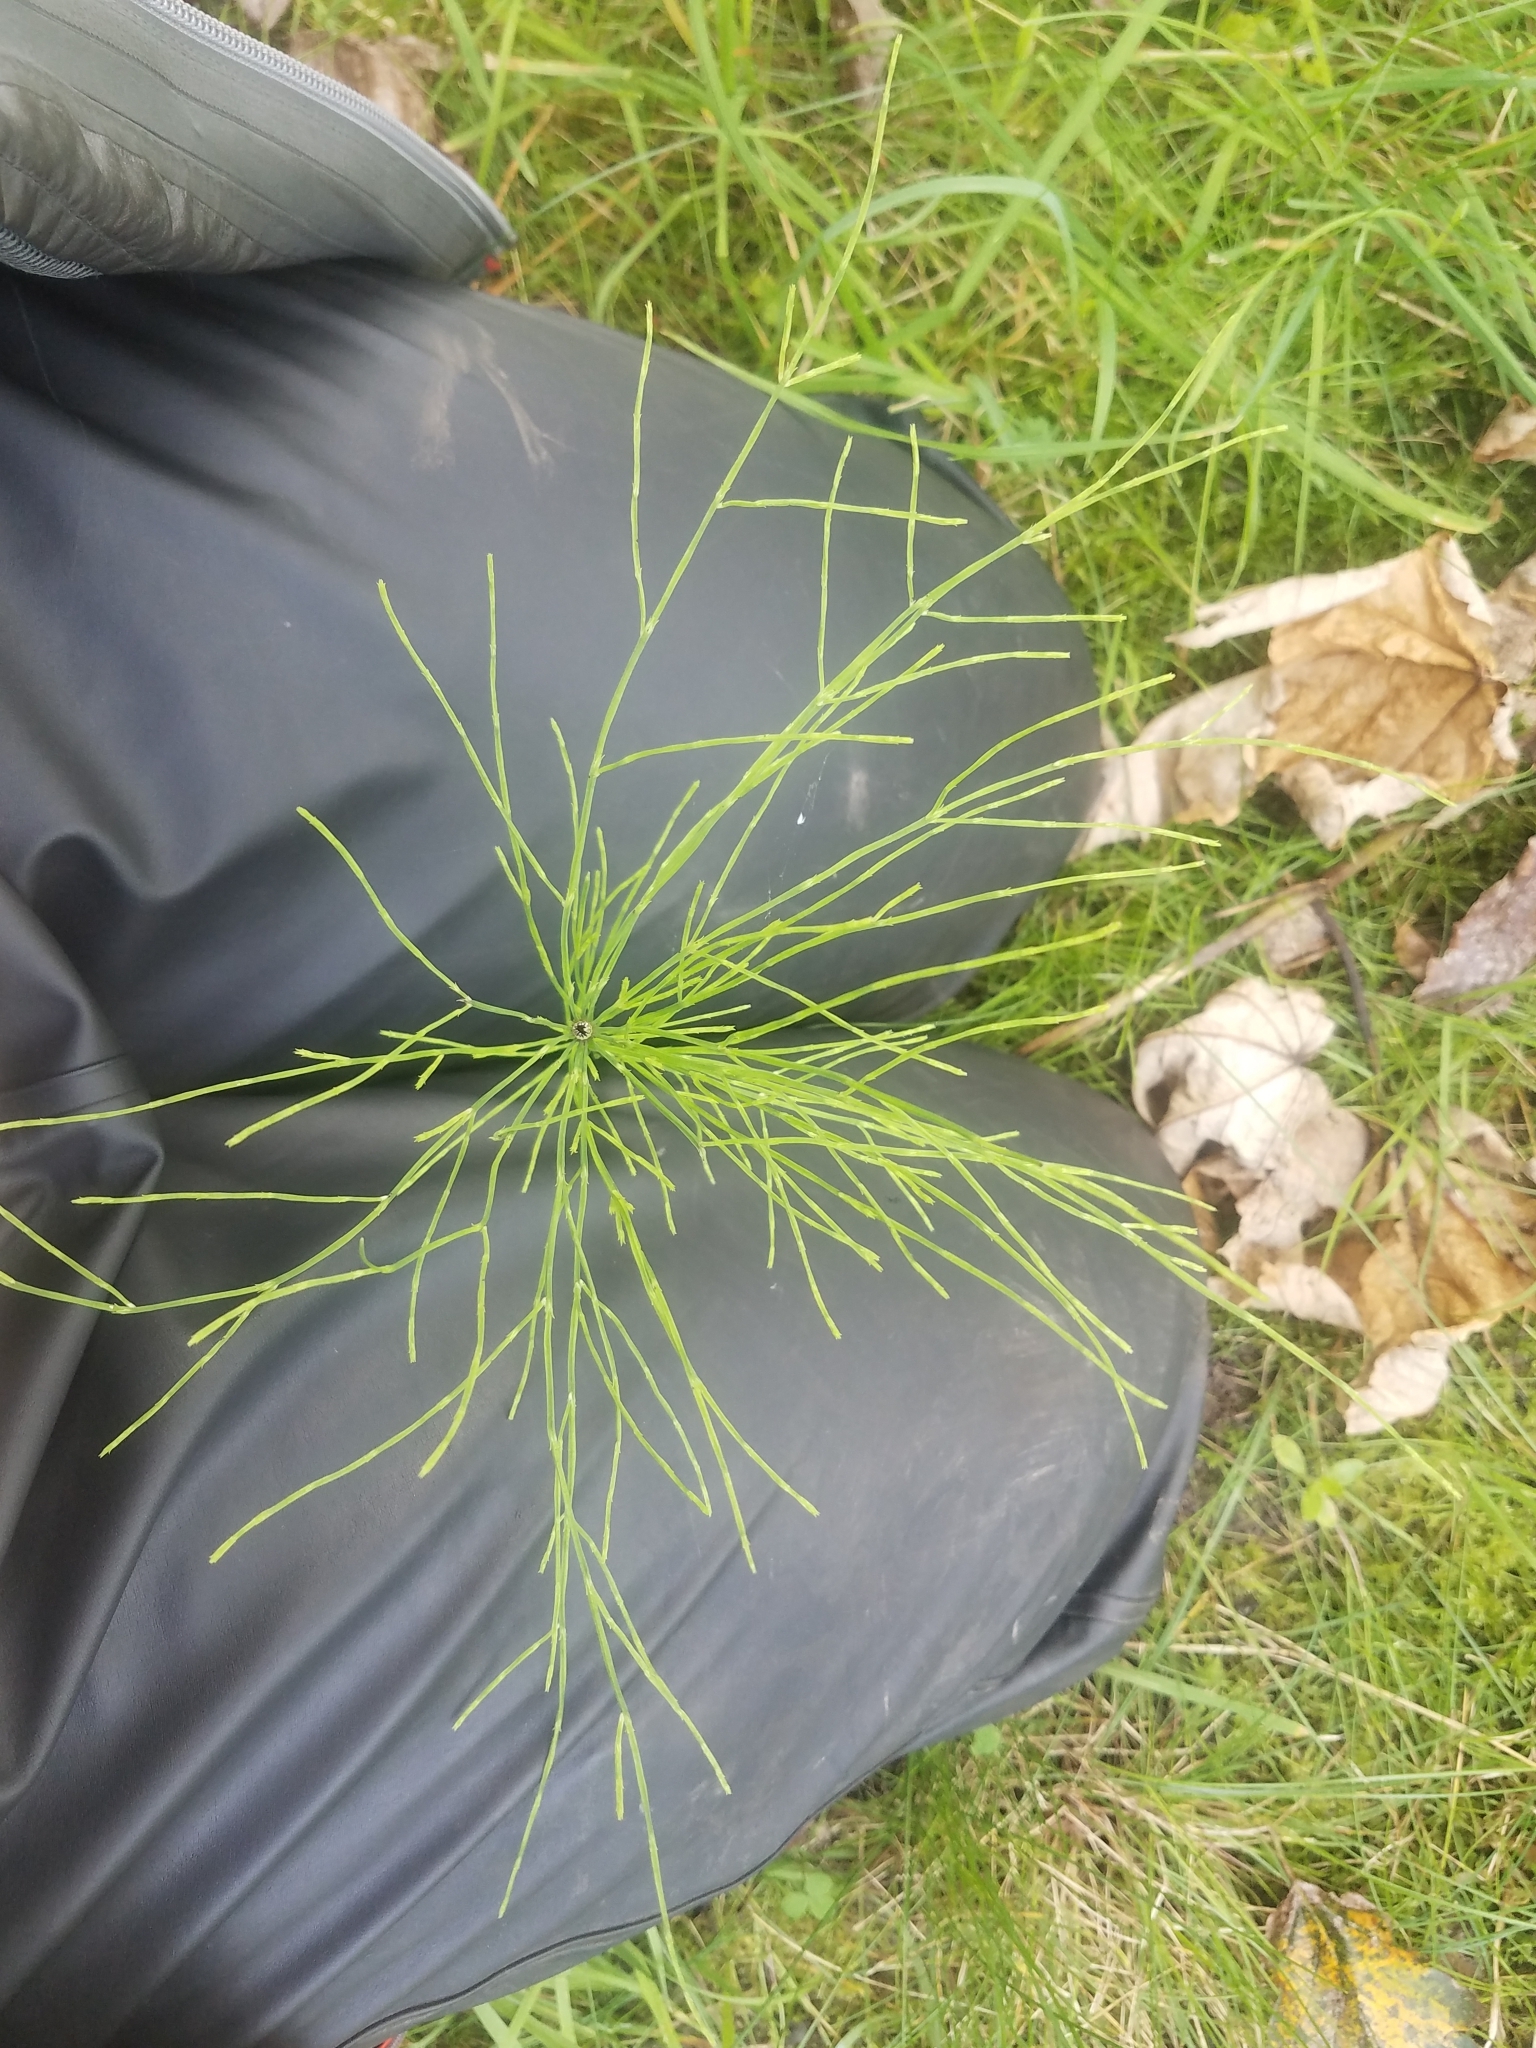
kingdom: Plantae
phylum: Tracheophyta
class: Polypodiopsida
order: Equisetales
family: Equisetaceae
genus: Equisetum
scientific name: Equisetum sylvaticum
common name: Wood horsetail
